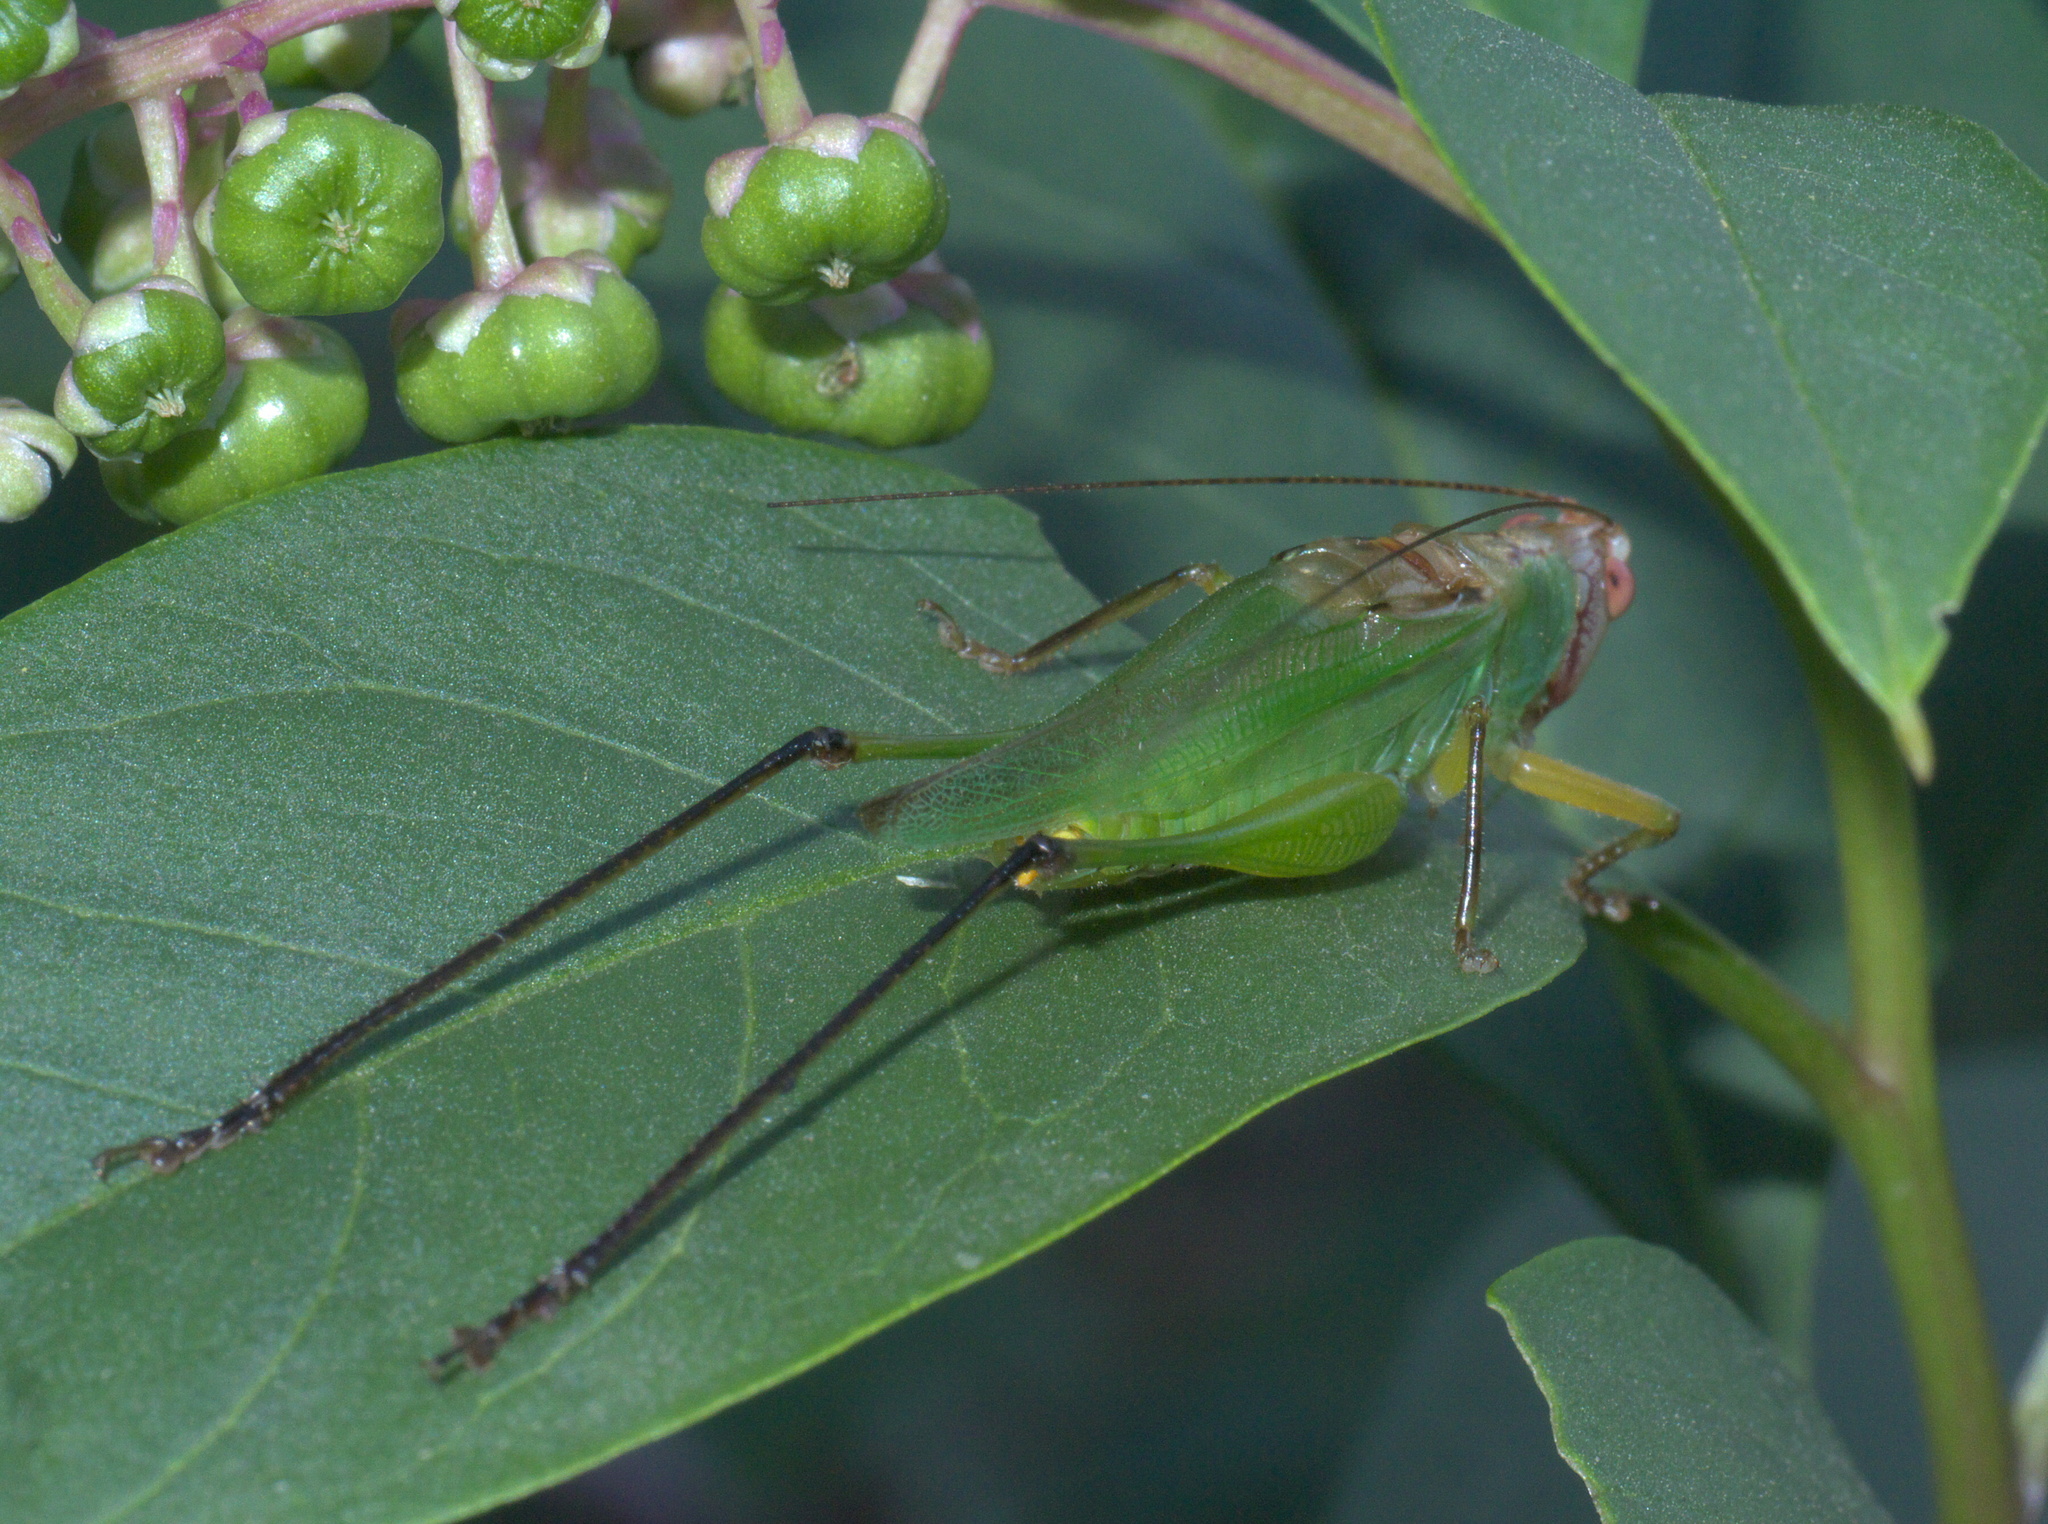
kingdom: Animalia
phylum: Arthropoda
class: Insecta
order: Orthoptera
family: Tettigoniidae
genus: Orchelimum
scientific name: Orchelimum nigripes
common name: Black-legged meadow katydid
